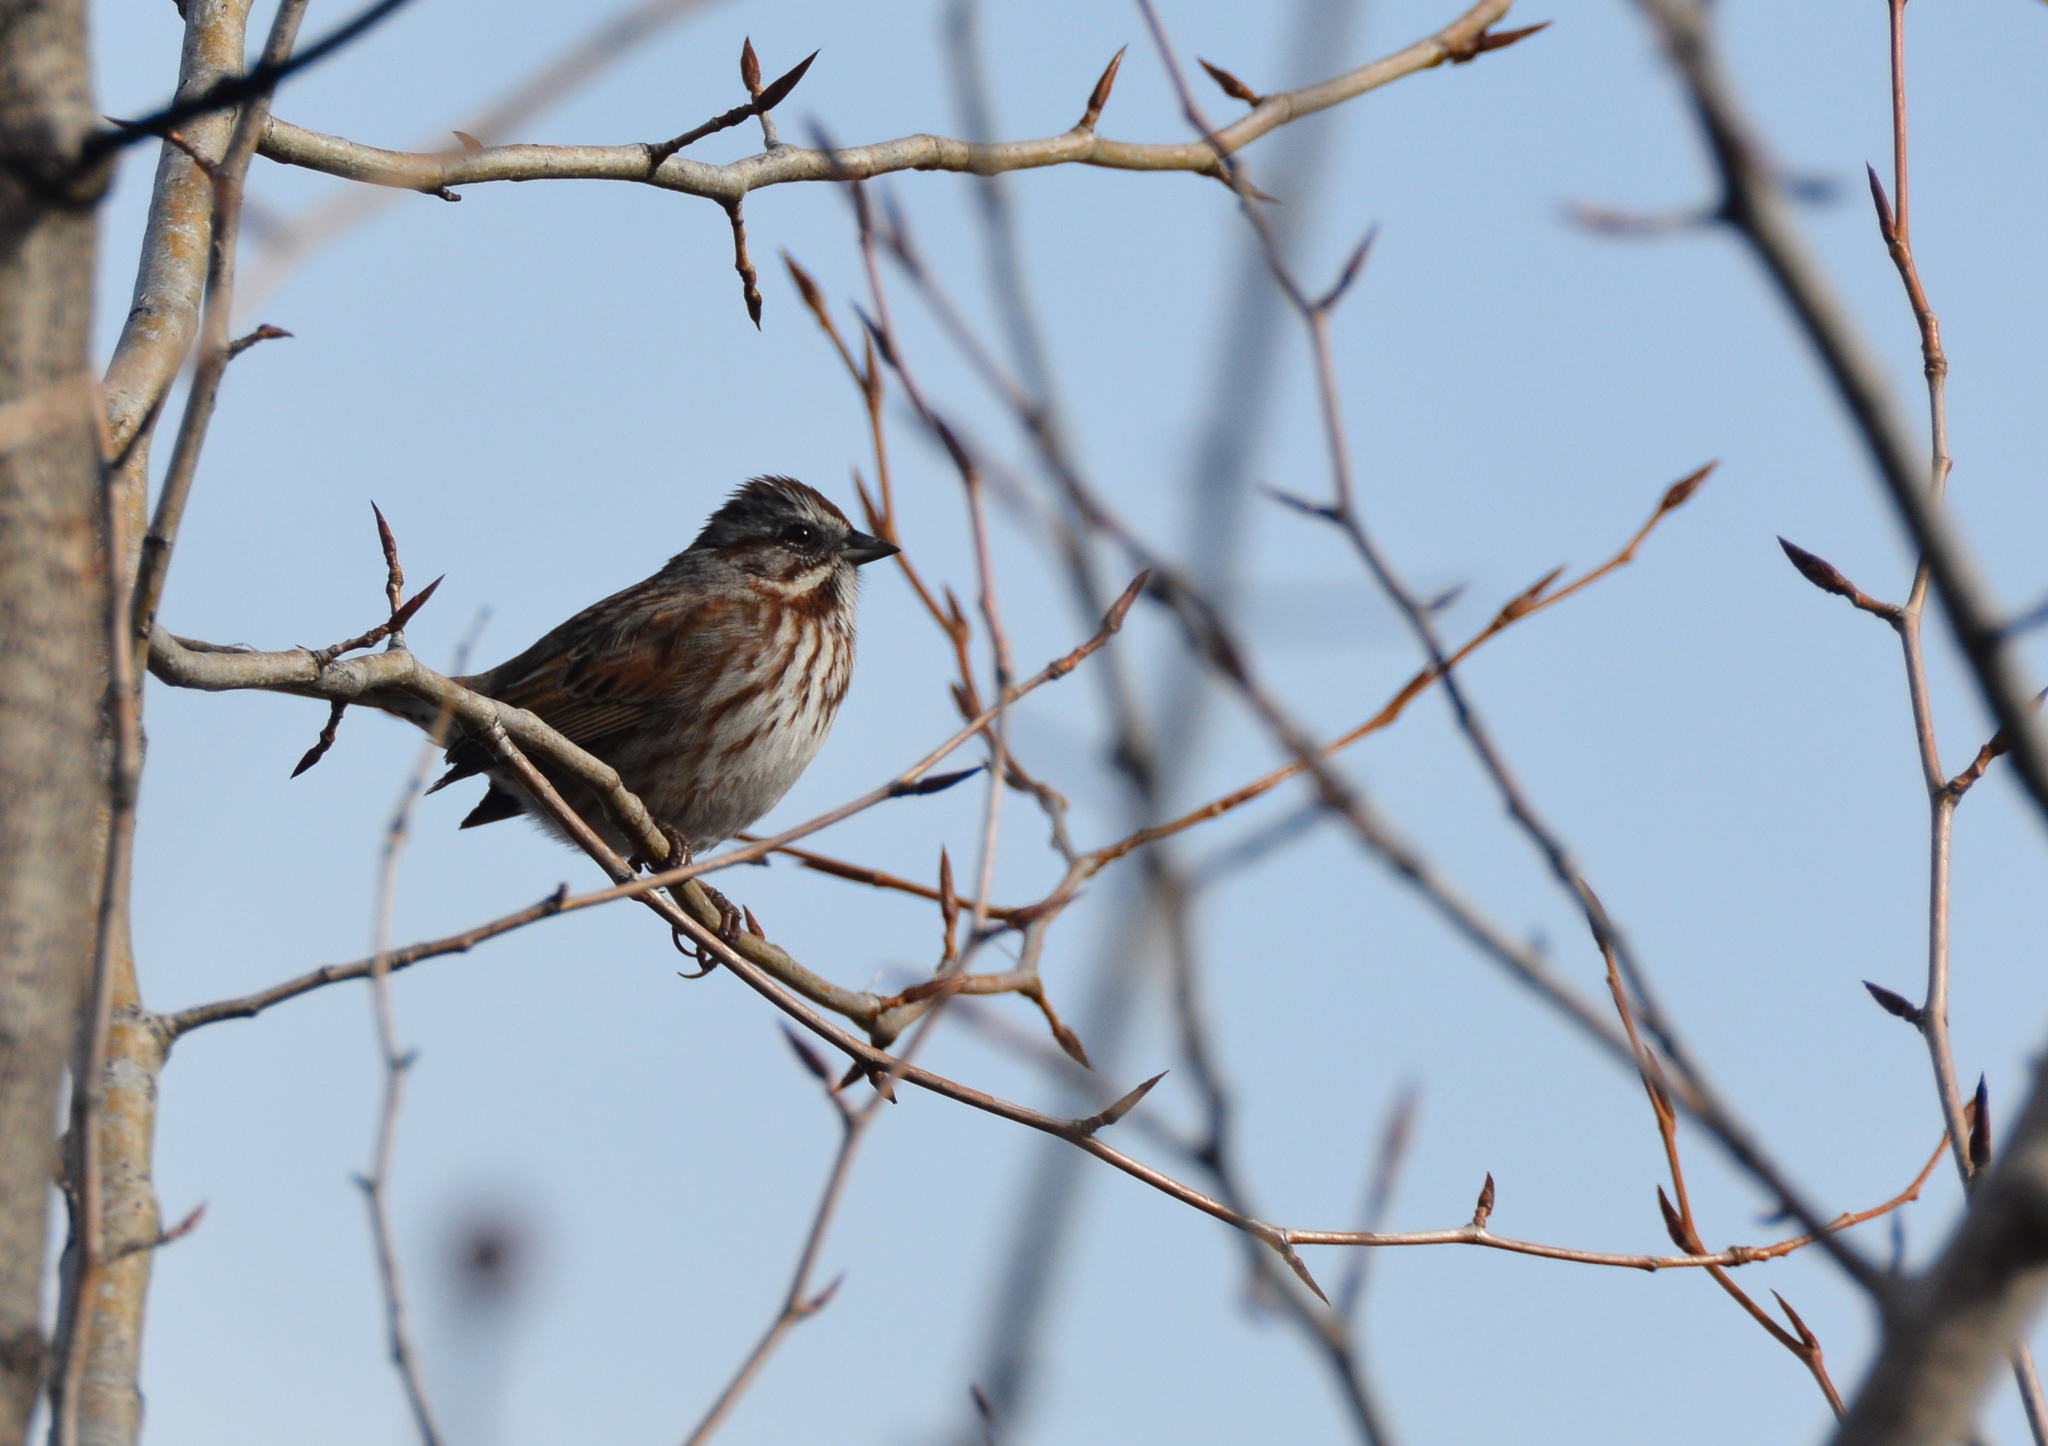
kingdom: Animalia
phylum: Chordata
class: Aves
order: Passeriformes
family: Passerellidae
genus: Melospiza
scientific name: Melospiza melodia
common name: Song sparrow
